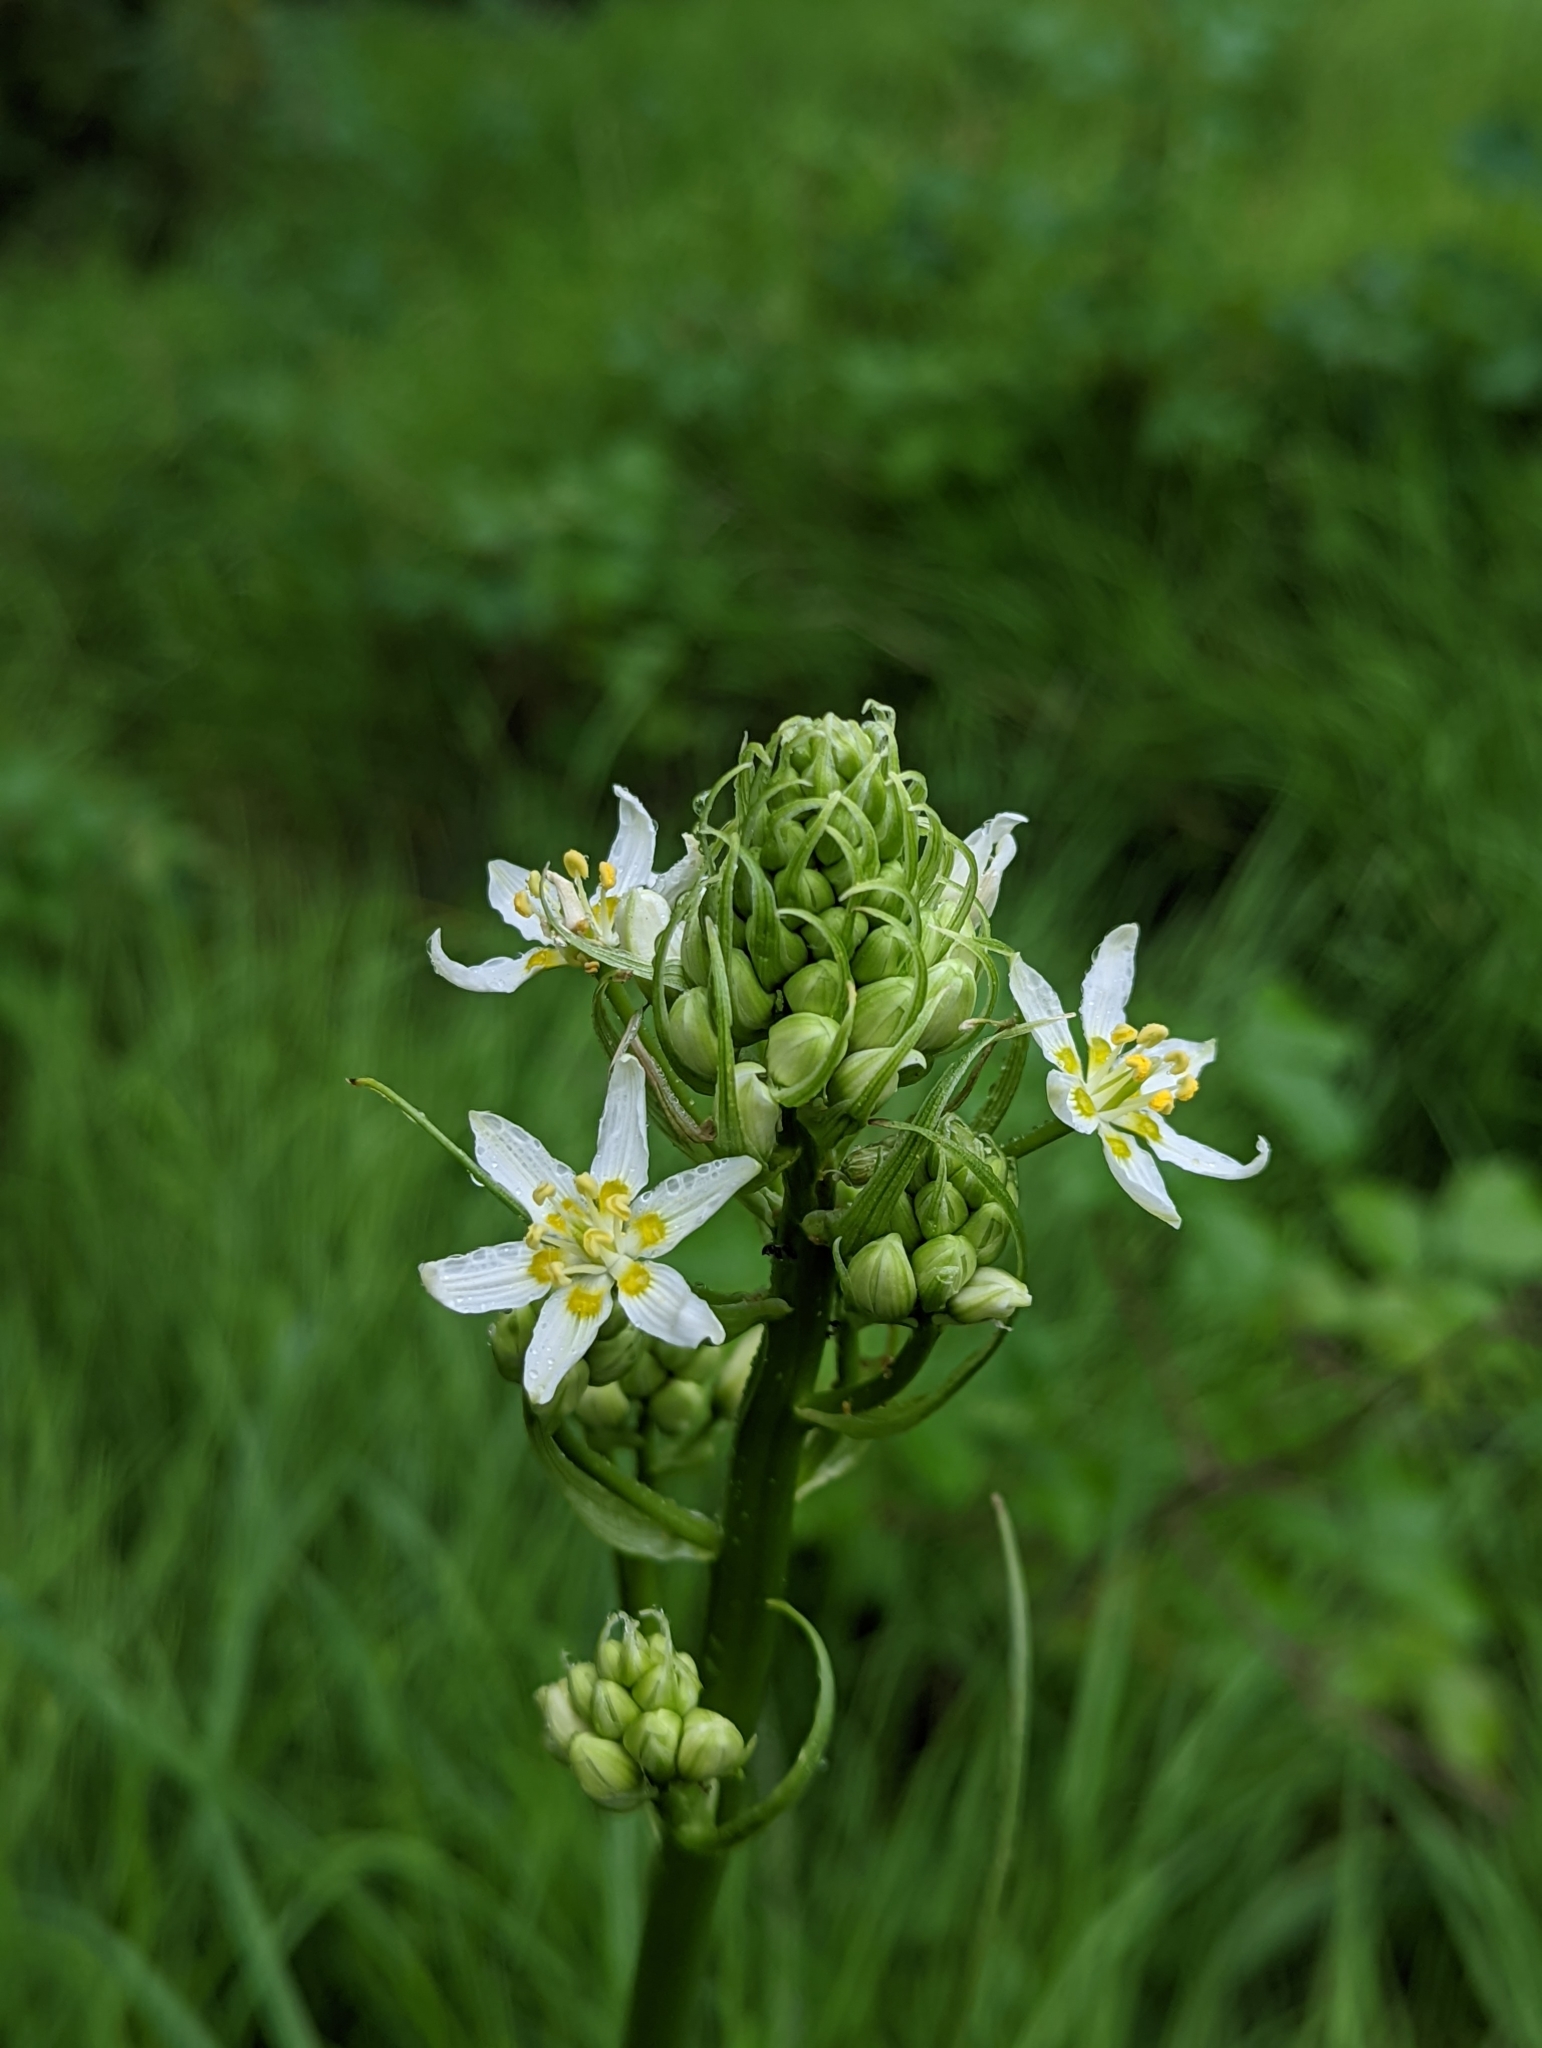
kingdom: Plantae
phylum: Tracheophyta
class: Liliopsida
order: Liliales
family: Melanthiaceae
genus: Toxicoscordion
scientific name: Toxicoscordion fremontii
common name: Fremont's death camas
